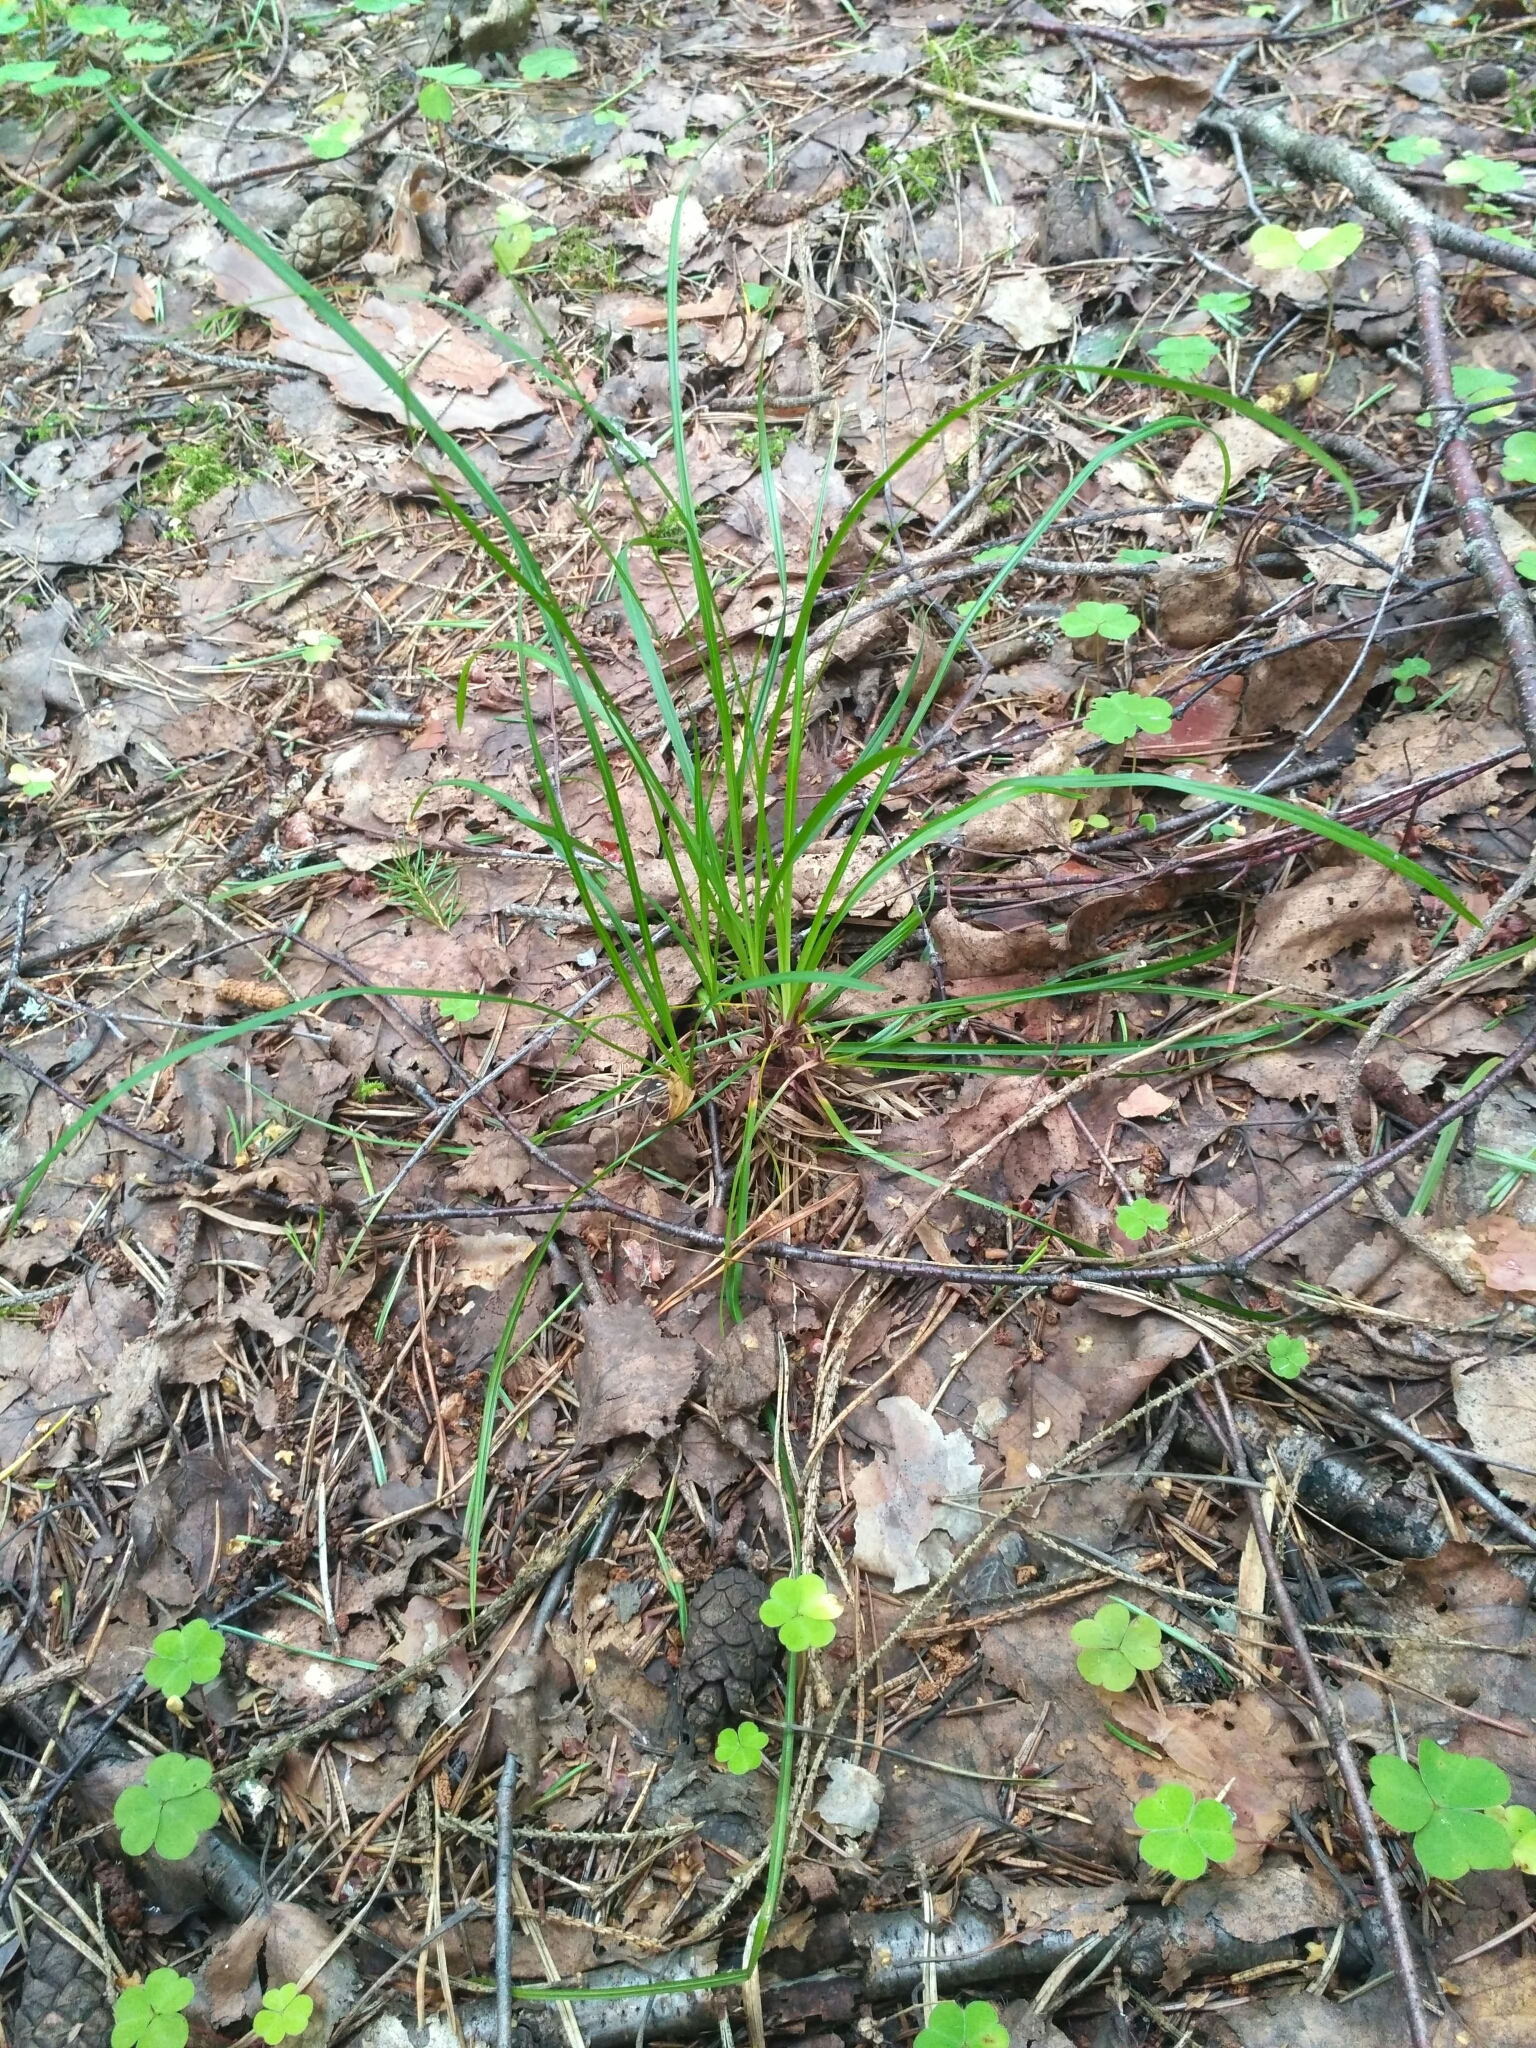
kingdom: Plantae
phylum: Tracheophyta
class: Liliopsida
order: Poales
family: Cyperaceae
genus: Carex
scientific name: Carex digitata
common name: Fingered sedge
